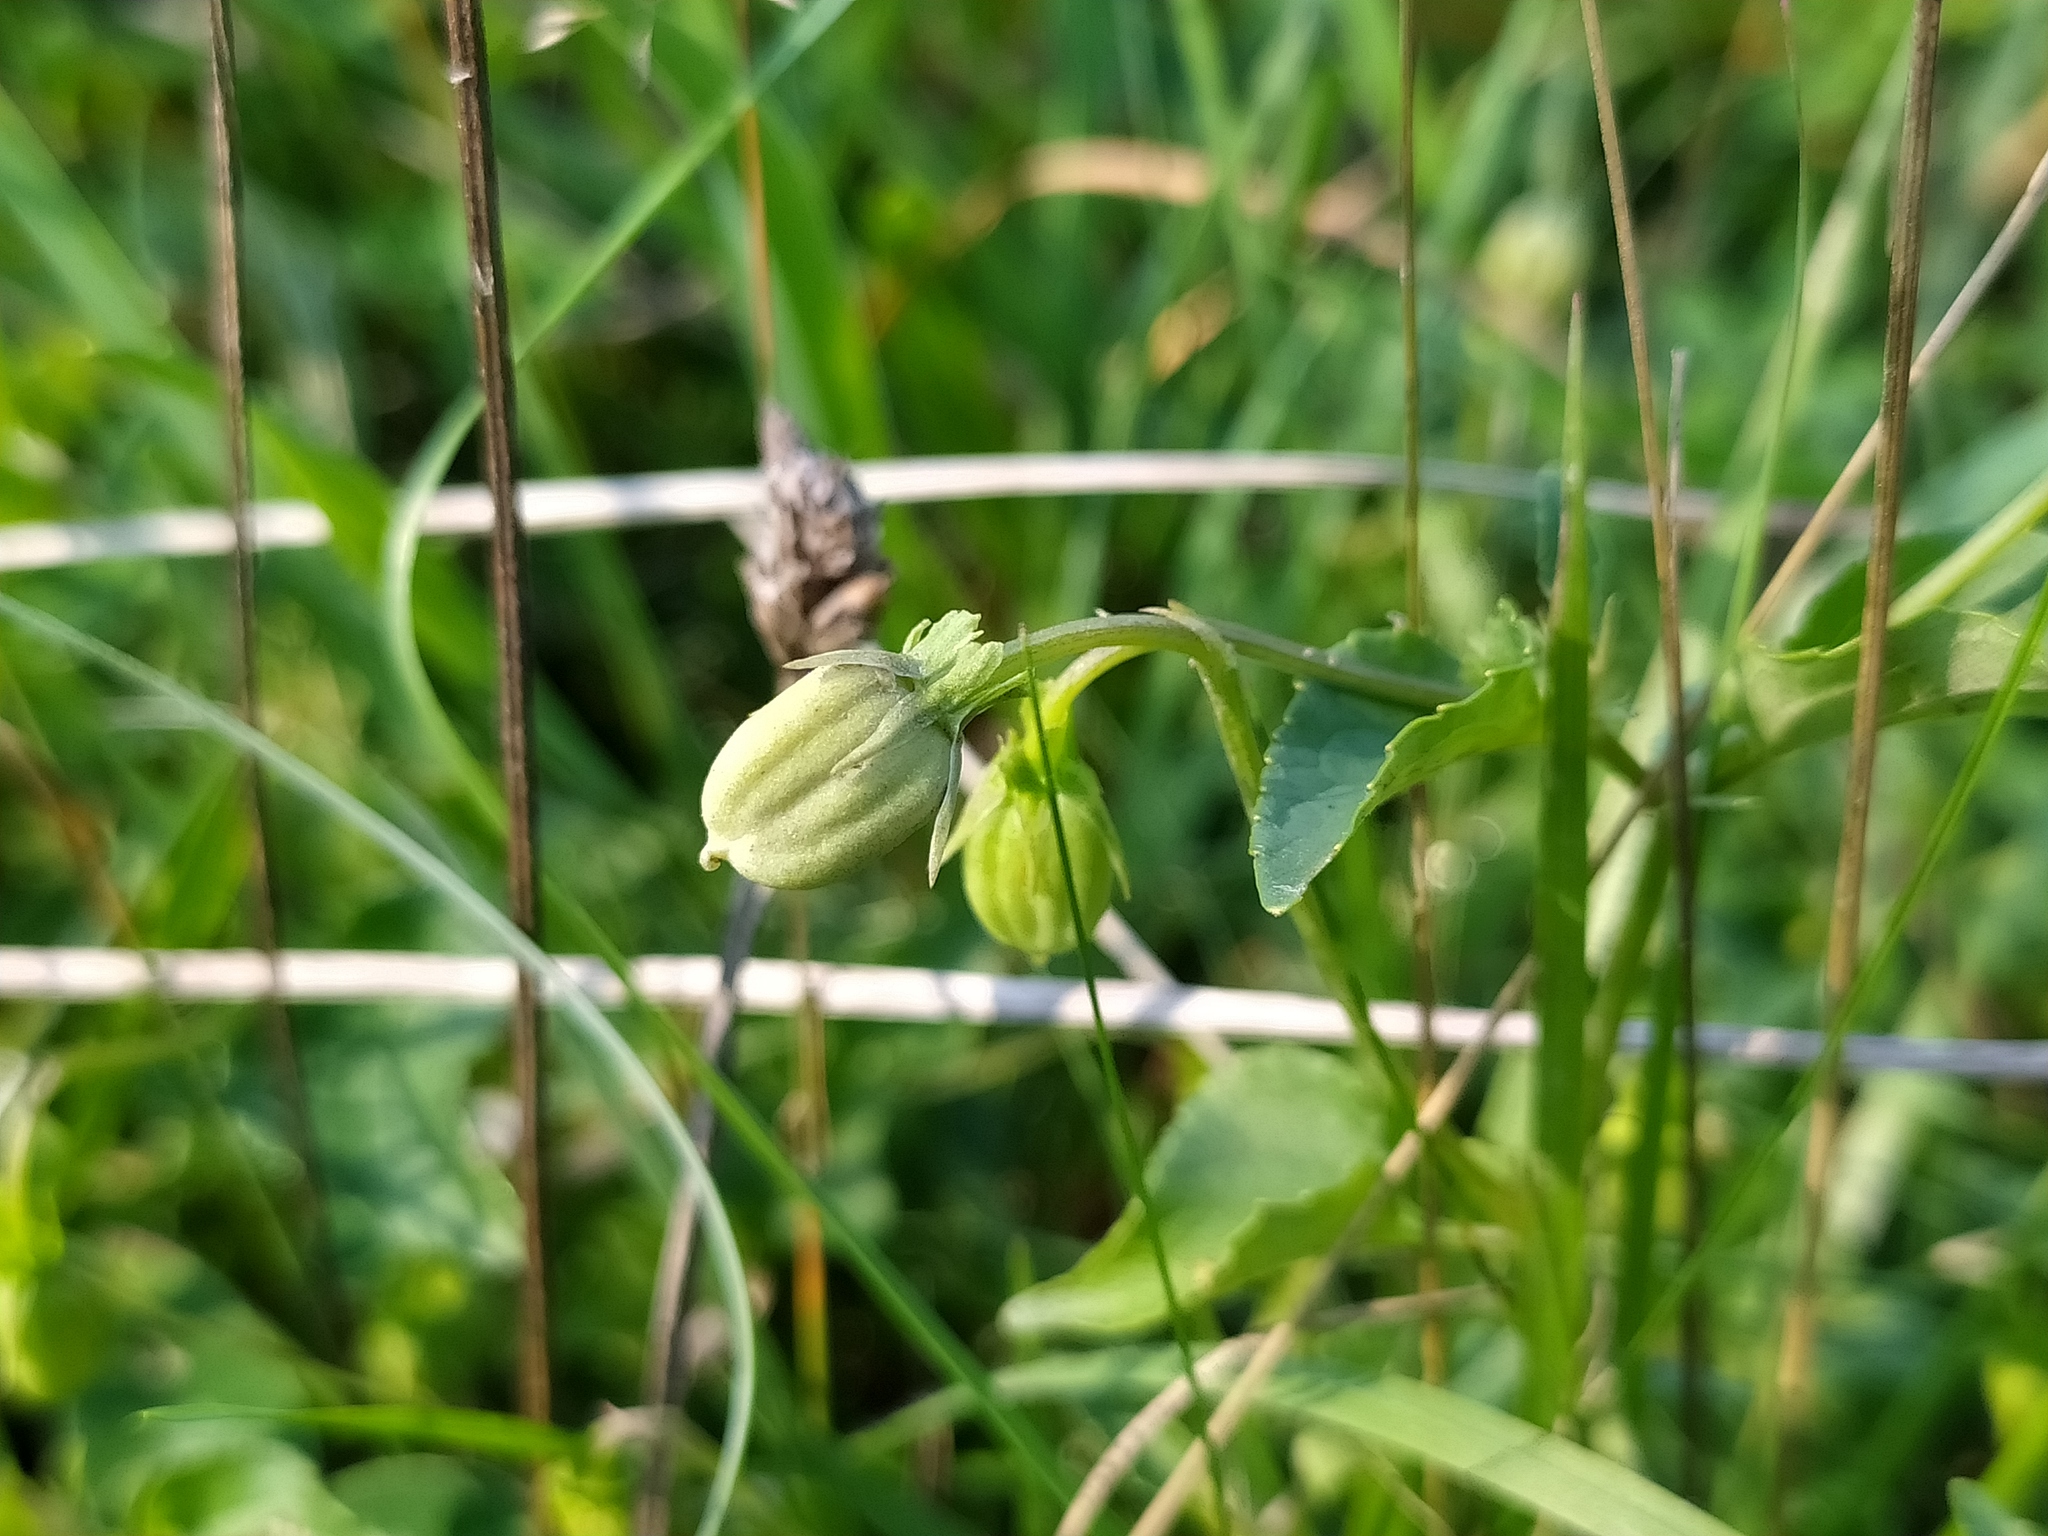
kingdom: Plantae
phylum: Tracheophyta
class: Magnoliopsida
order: Malpighiales
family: Violaceae
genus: Viola
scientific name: Viola canina
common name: Heath dog-violet
